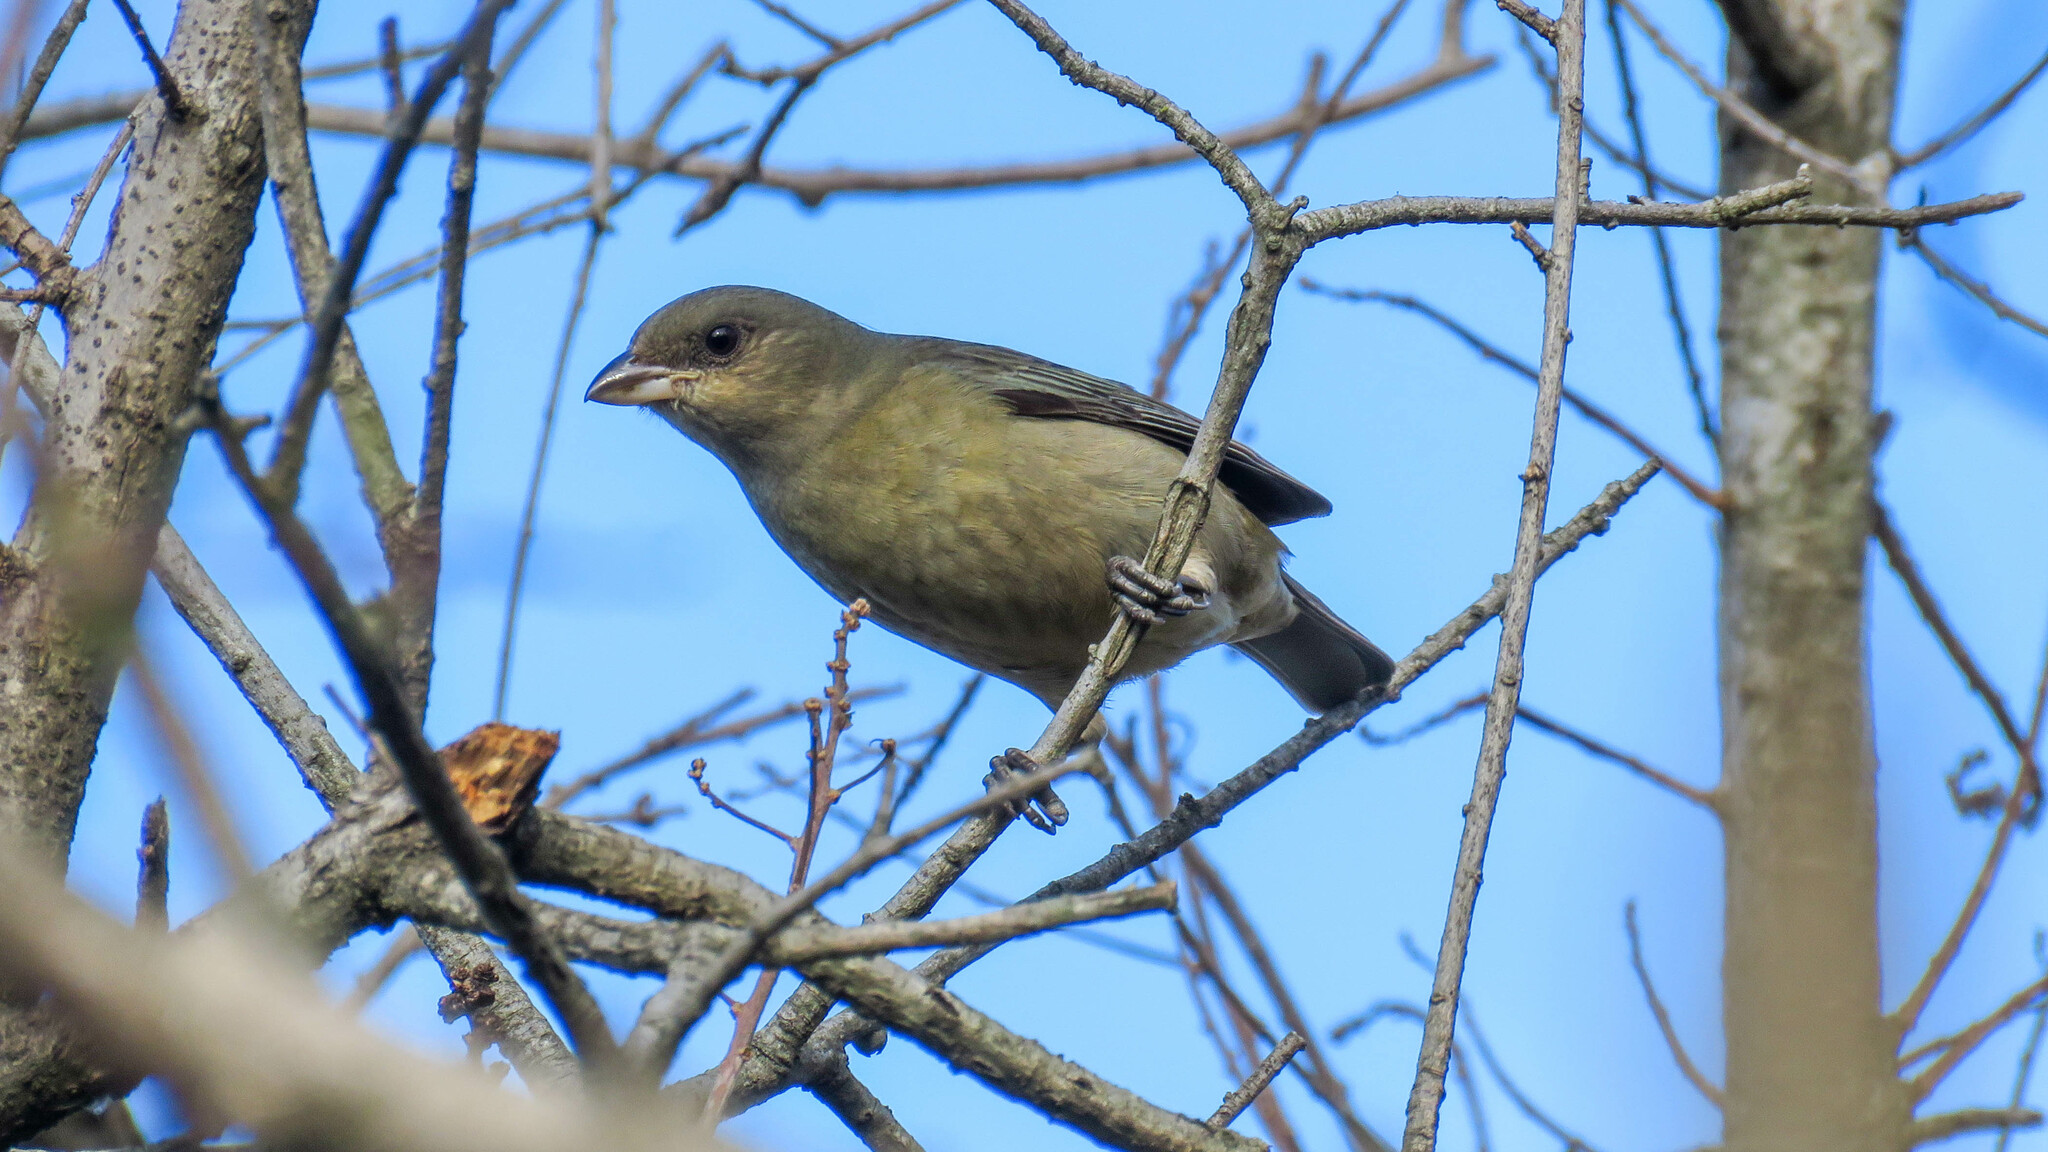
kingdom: Animalia
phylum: Chordata
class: Aves
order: Passeriformes
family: Thraupidae
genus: Rauenia
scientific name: Rauenia bonariensis
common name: Blue-and-yellow tanager
